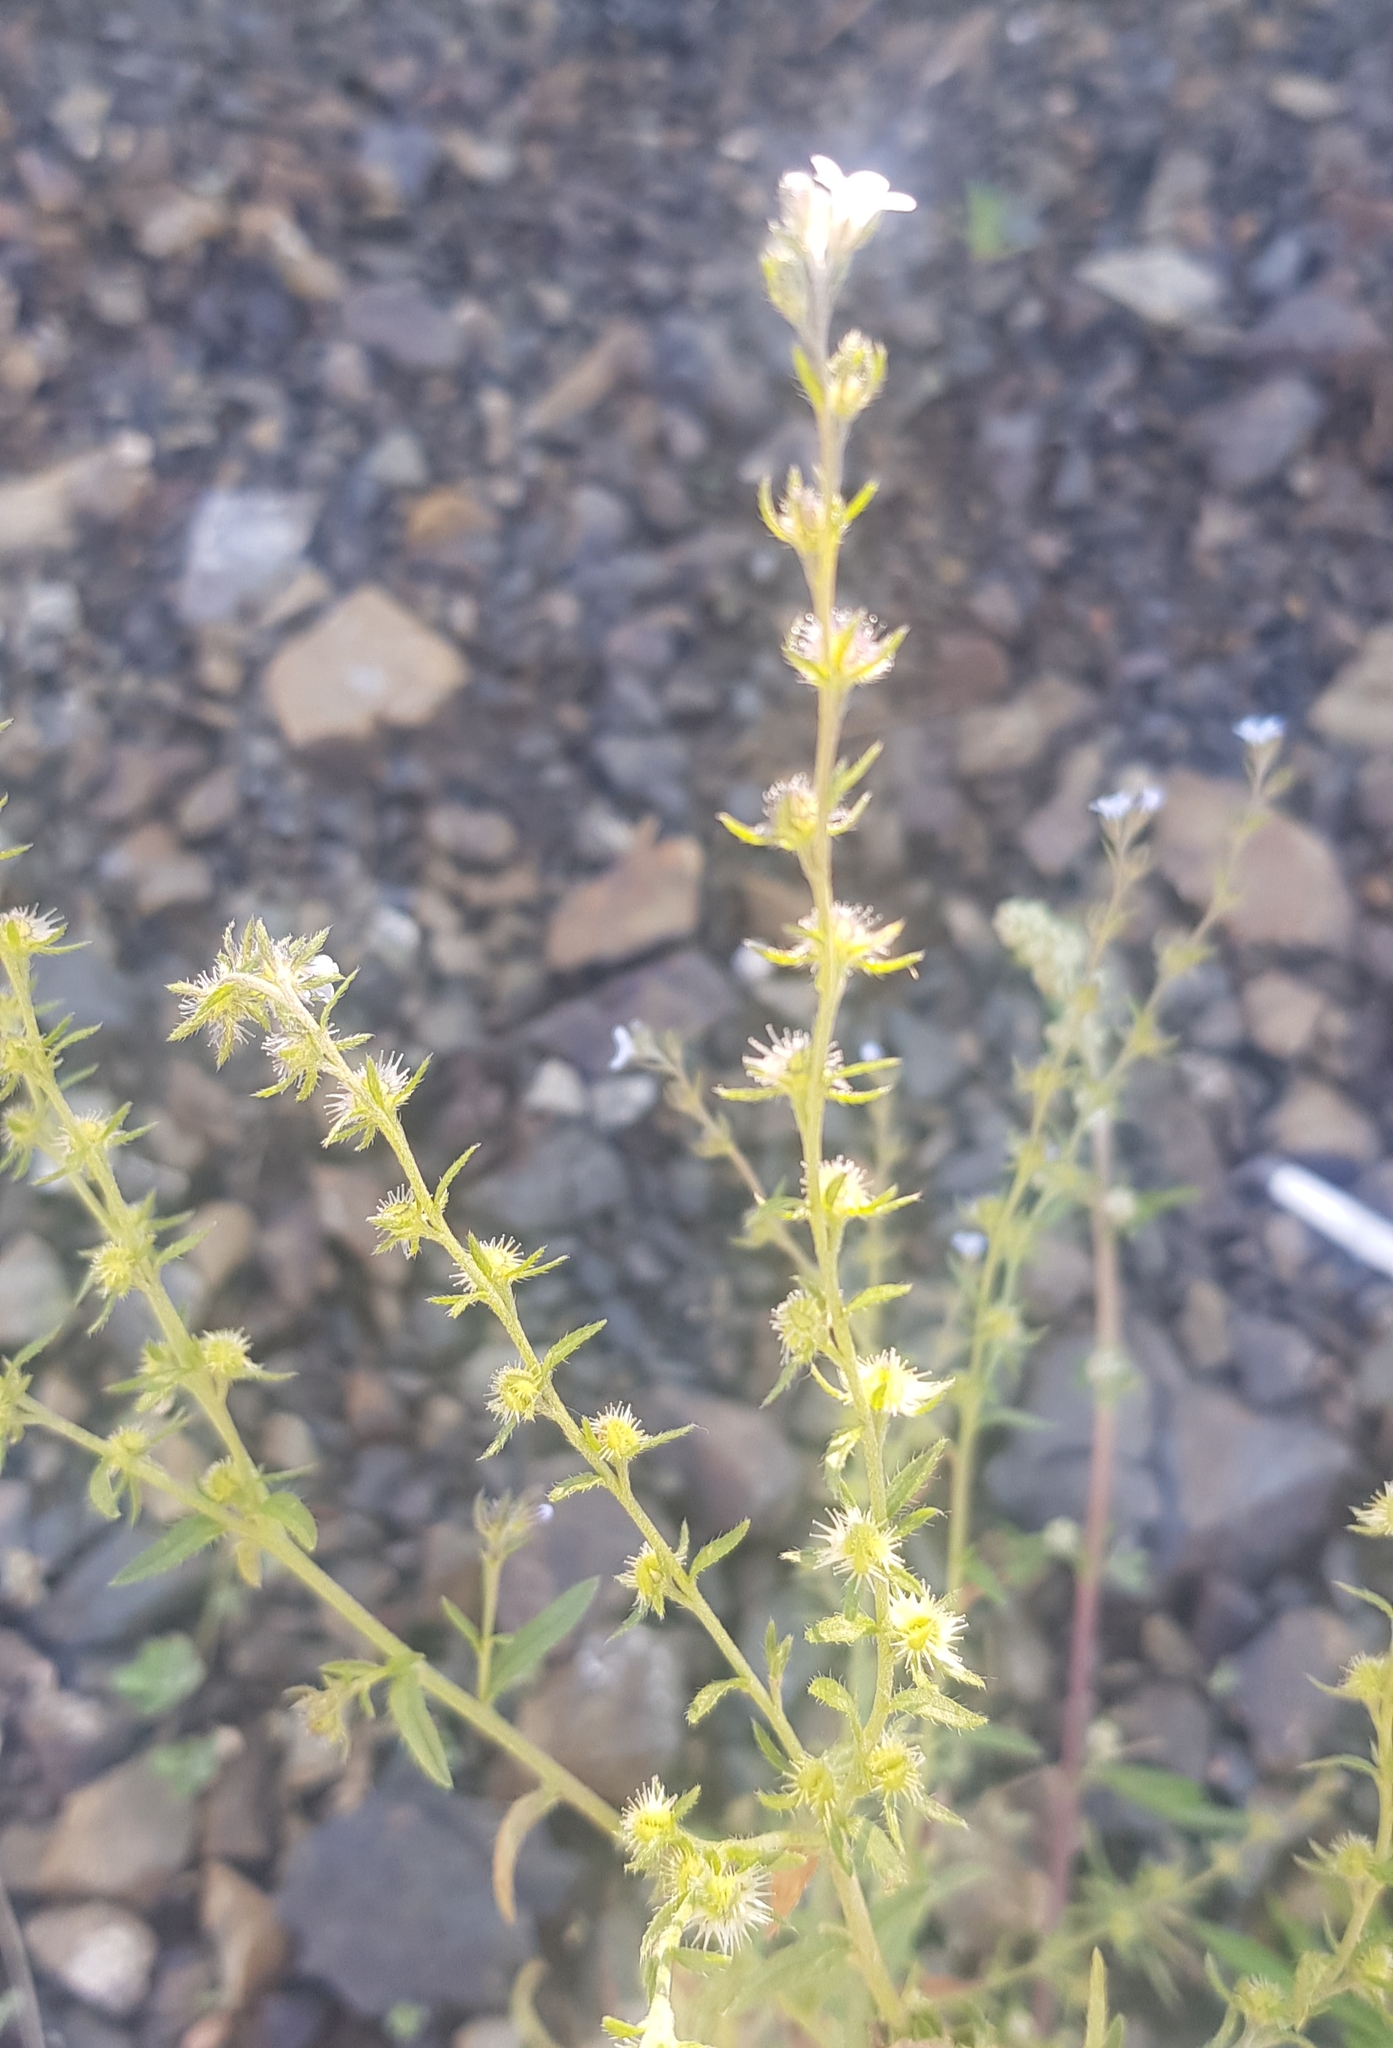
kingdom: Plantae
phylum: Tracheophyta
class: Magnoliopsida
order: Boraginales
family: Boraginaceae
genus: Lappula
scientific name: Lappula squarrosa
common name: European stickseed
